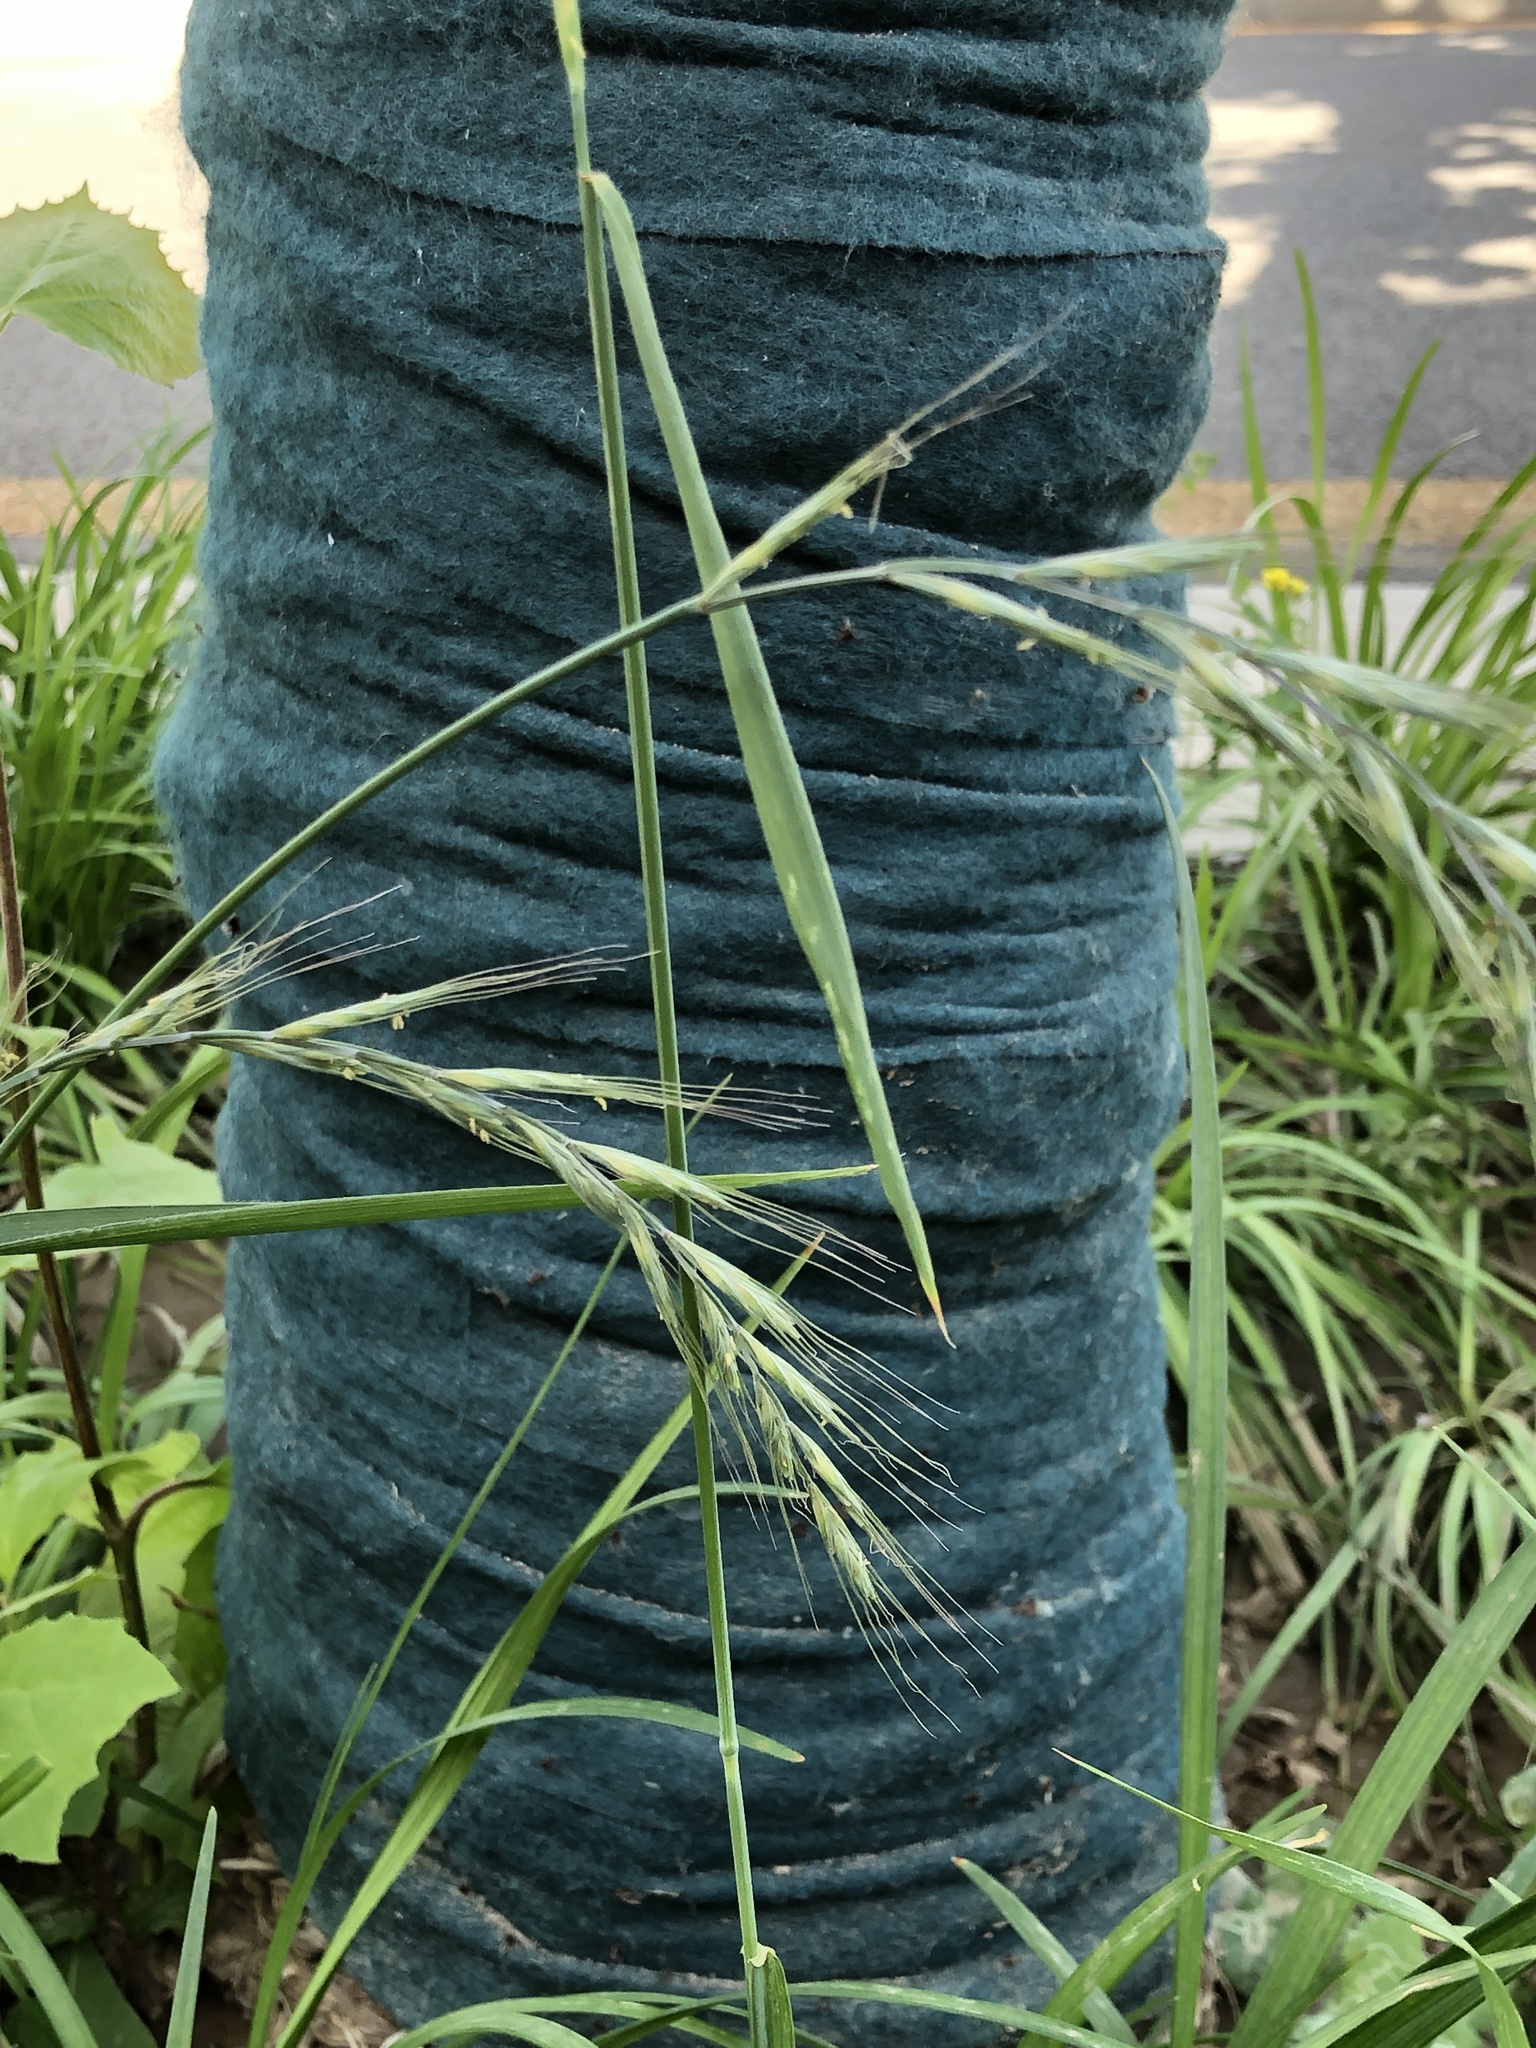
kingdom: Plantae
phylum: Tracheophyta
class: Liliopsida
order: Poales
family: Poaceae
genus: Elymus
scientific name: Elymus dahuricus
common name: Dahurian wild rye
